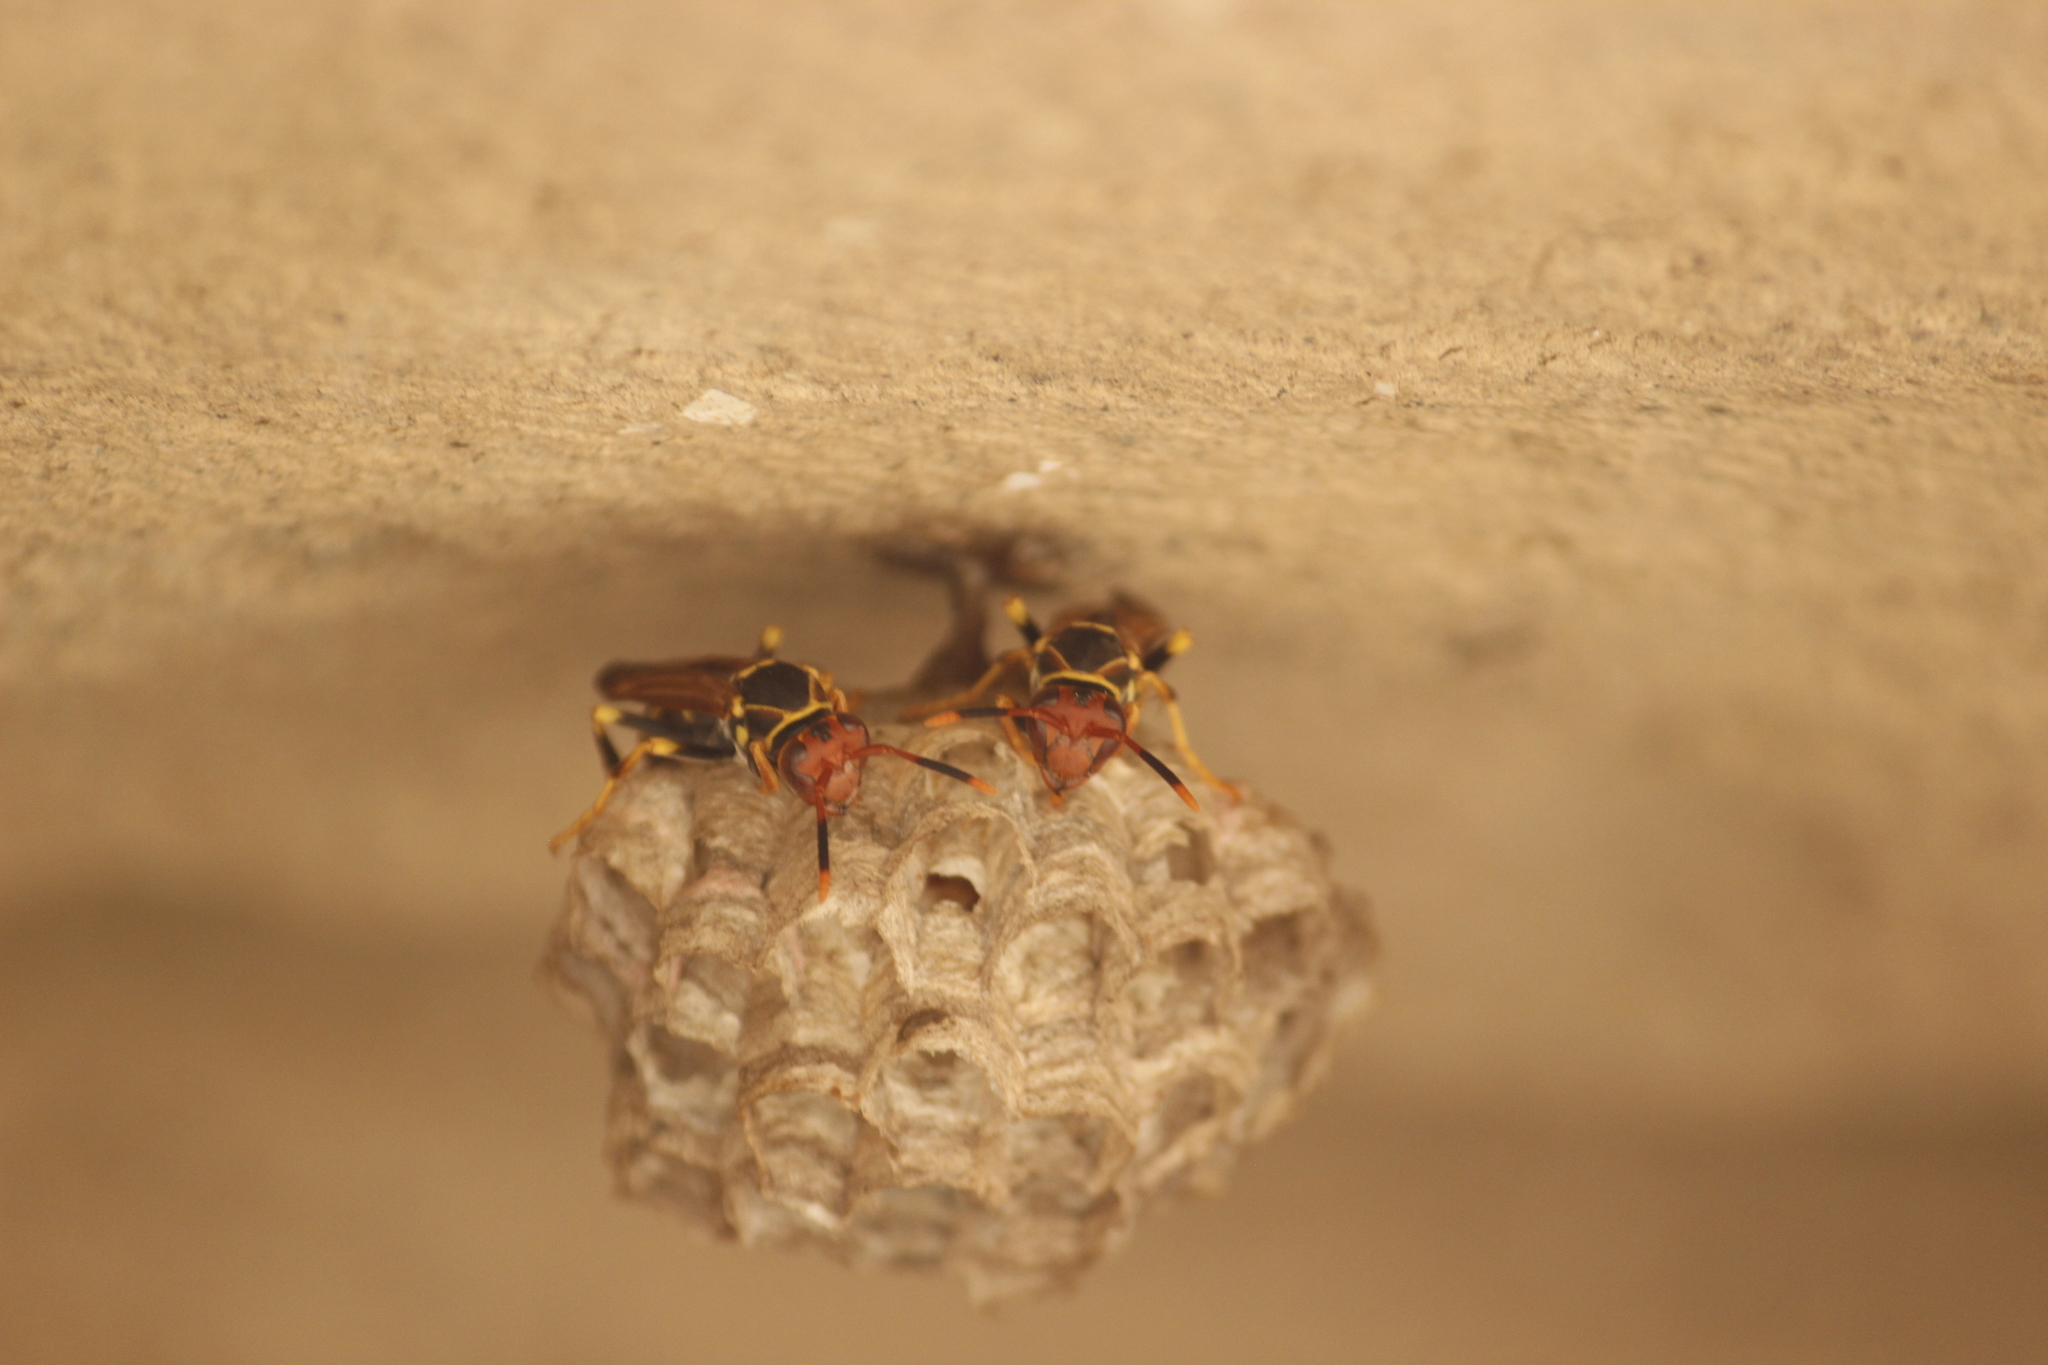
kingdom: Animalia
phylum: Arthropoda
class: Insecta
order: Hymenoptera
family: Eumenidae
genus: Polistes
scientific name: Polistes versicolor
